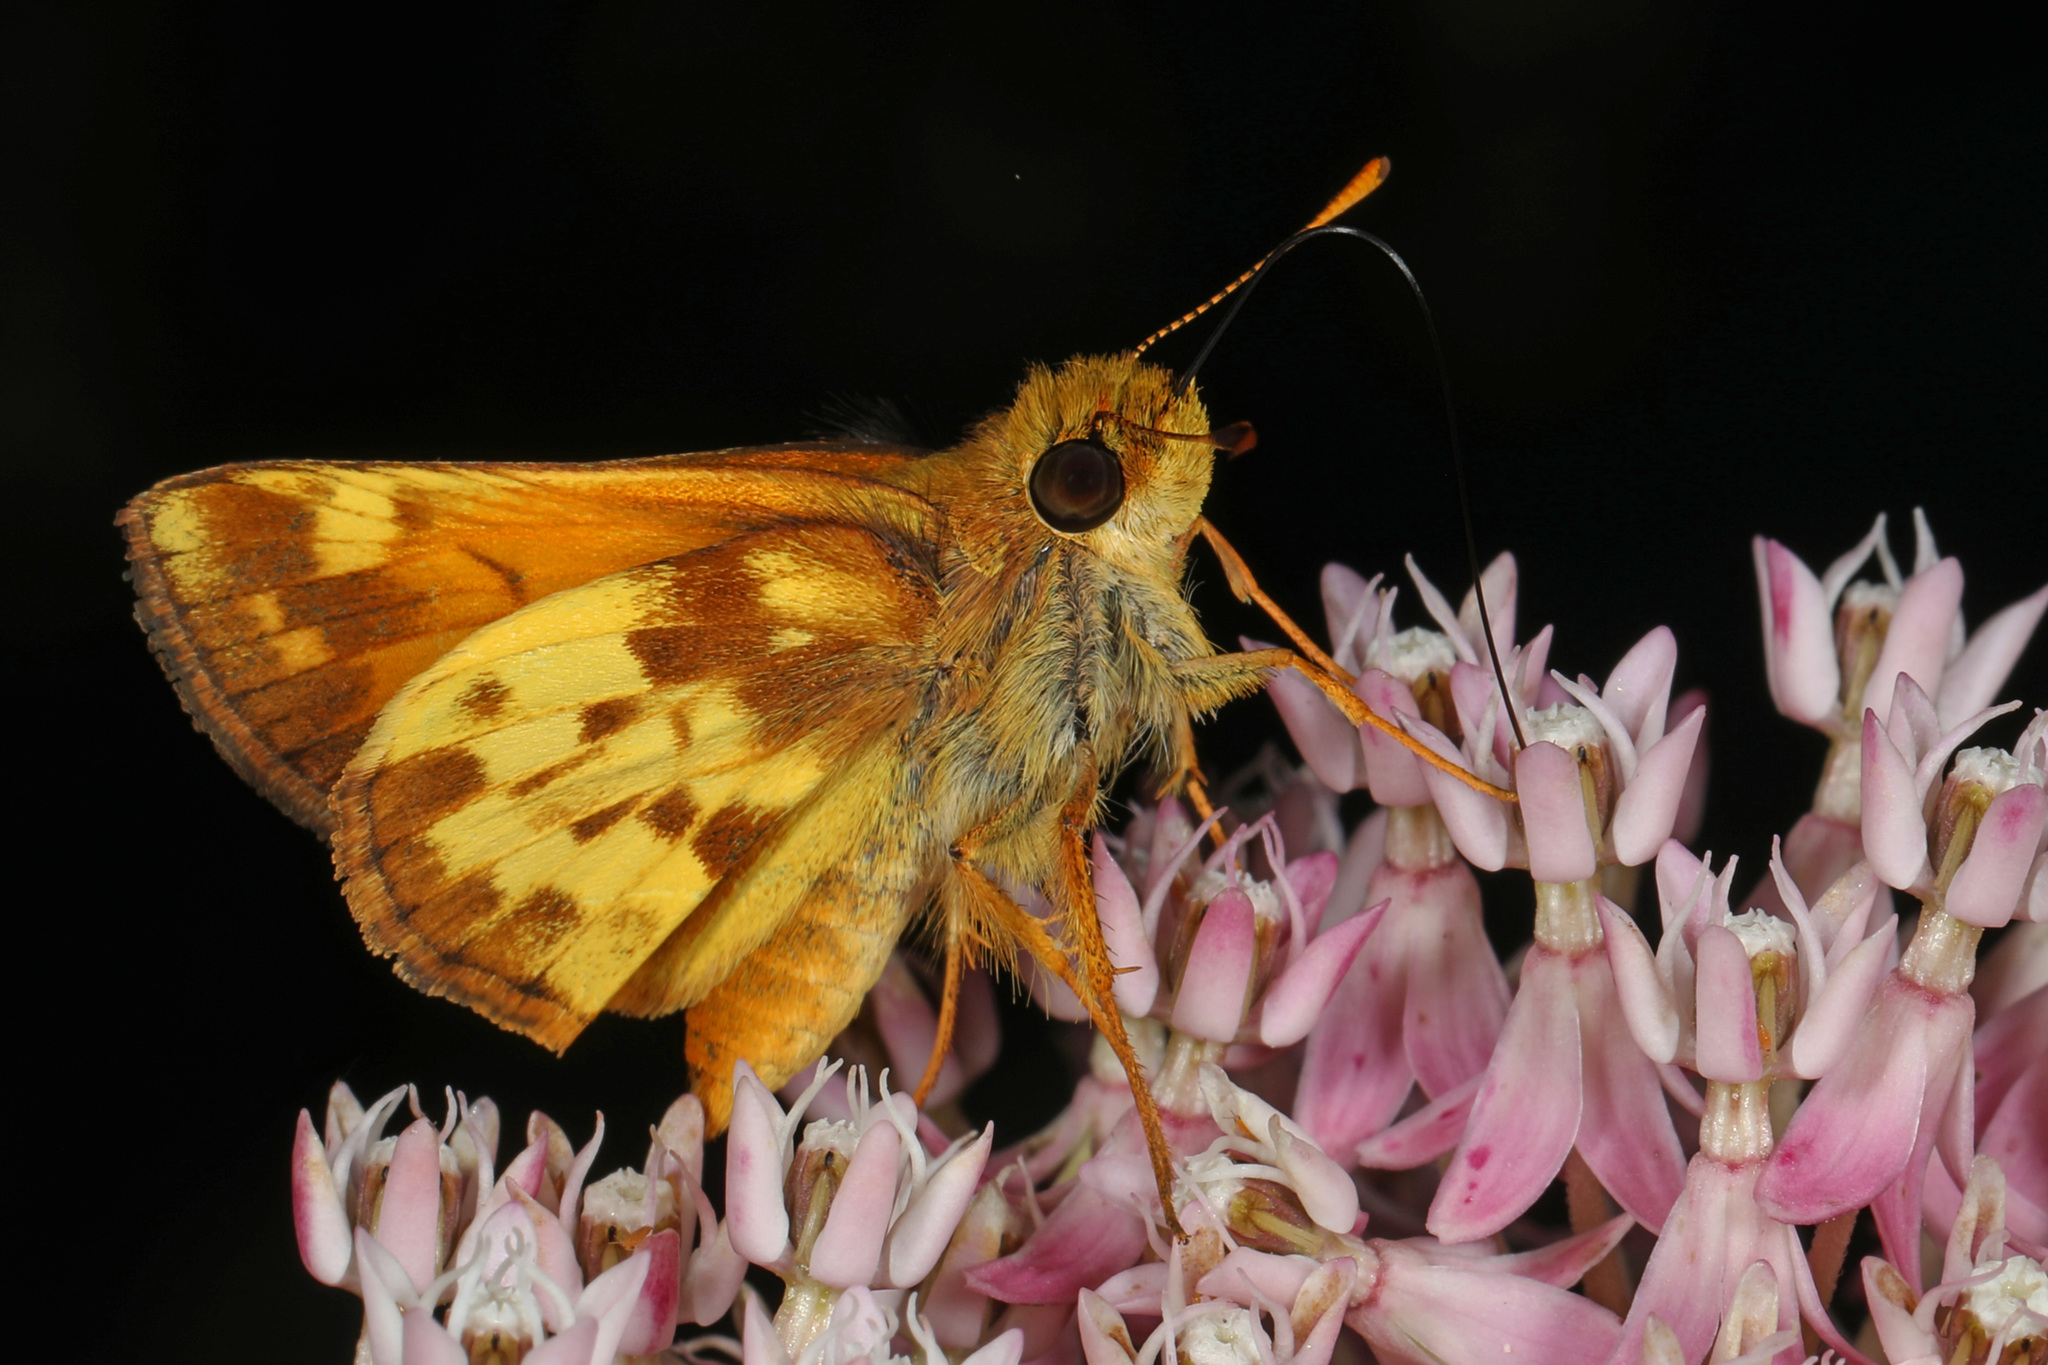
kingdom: Animalia
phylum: Arthropoda
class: Insecta
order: Lepidoptera
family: Hesperiidae
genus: Lon
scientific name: Lon zabulon
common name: Zabulon skipper
